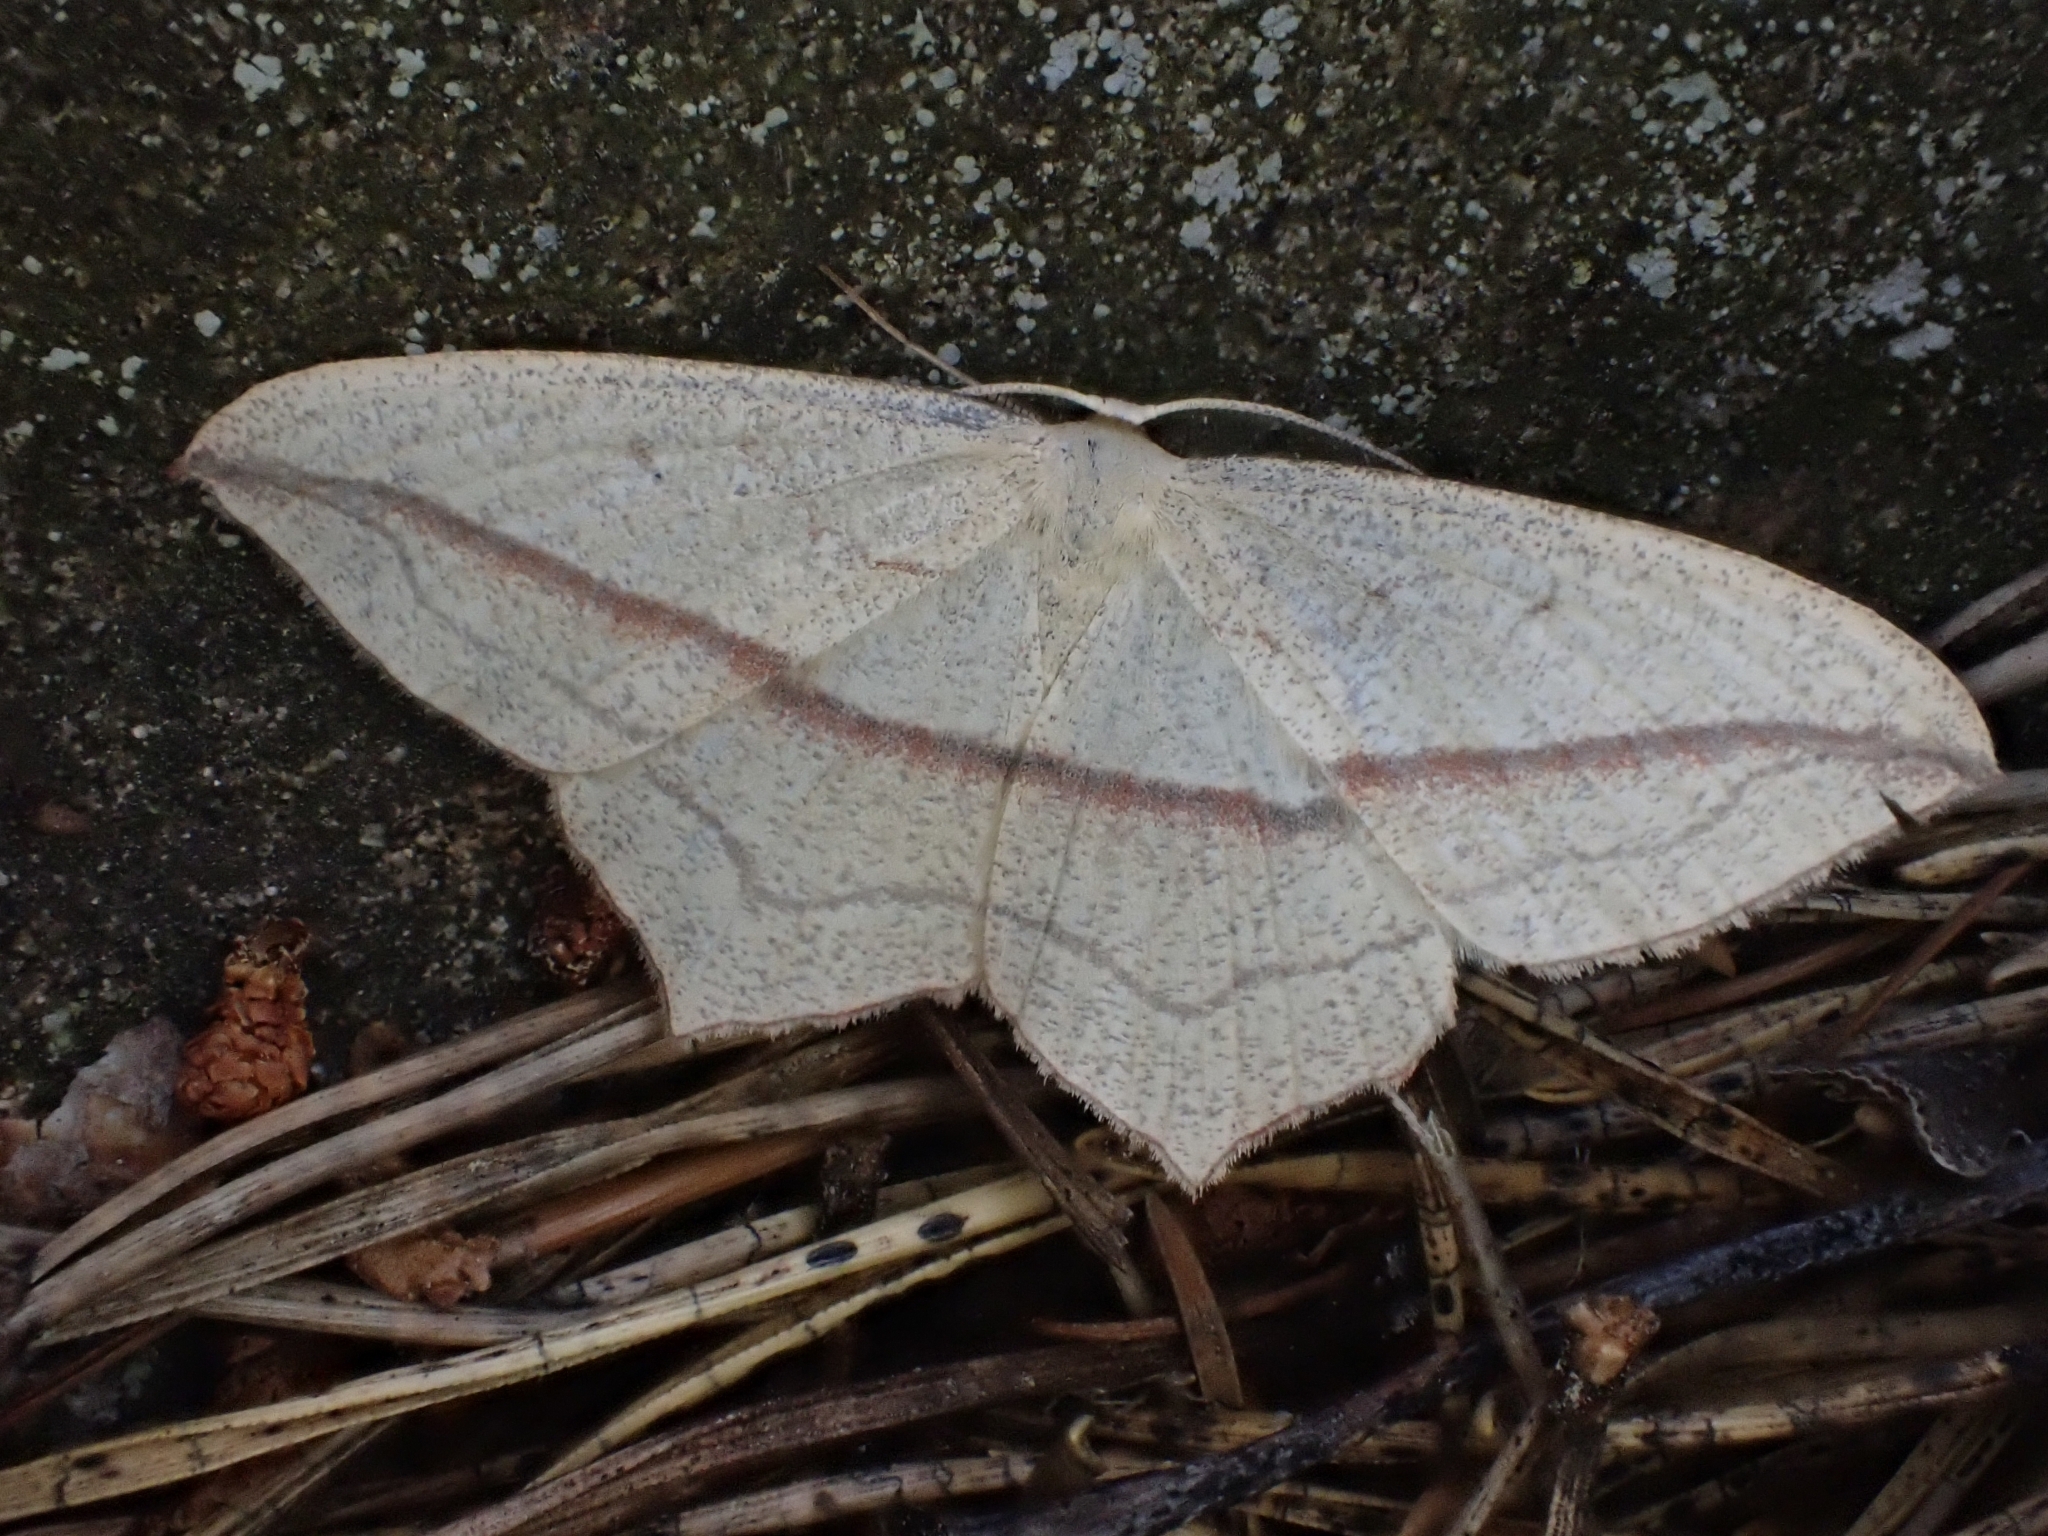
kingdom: Animalia
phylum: Arthropoda
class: Insecta
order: Lepidoptera
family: Geometridae
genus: Timandra
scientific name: Timandra comae
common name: Blood-vein
